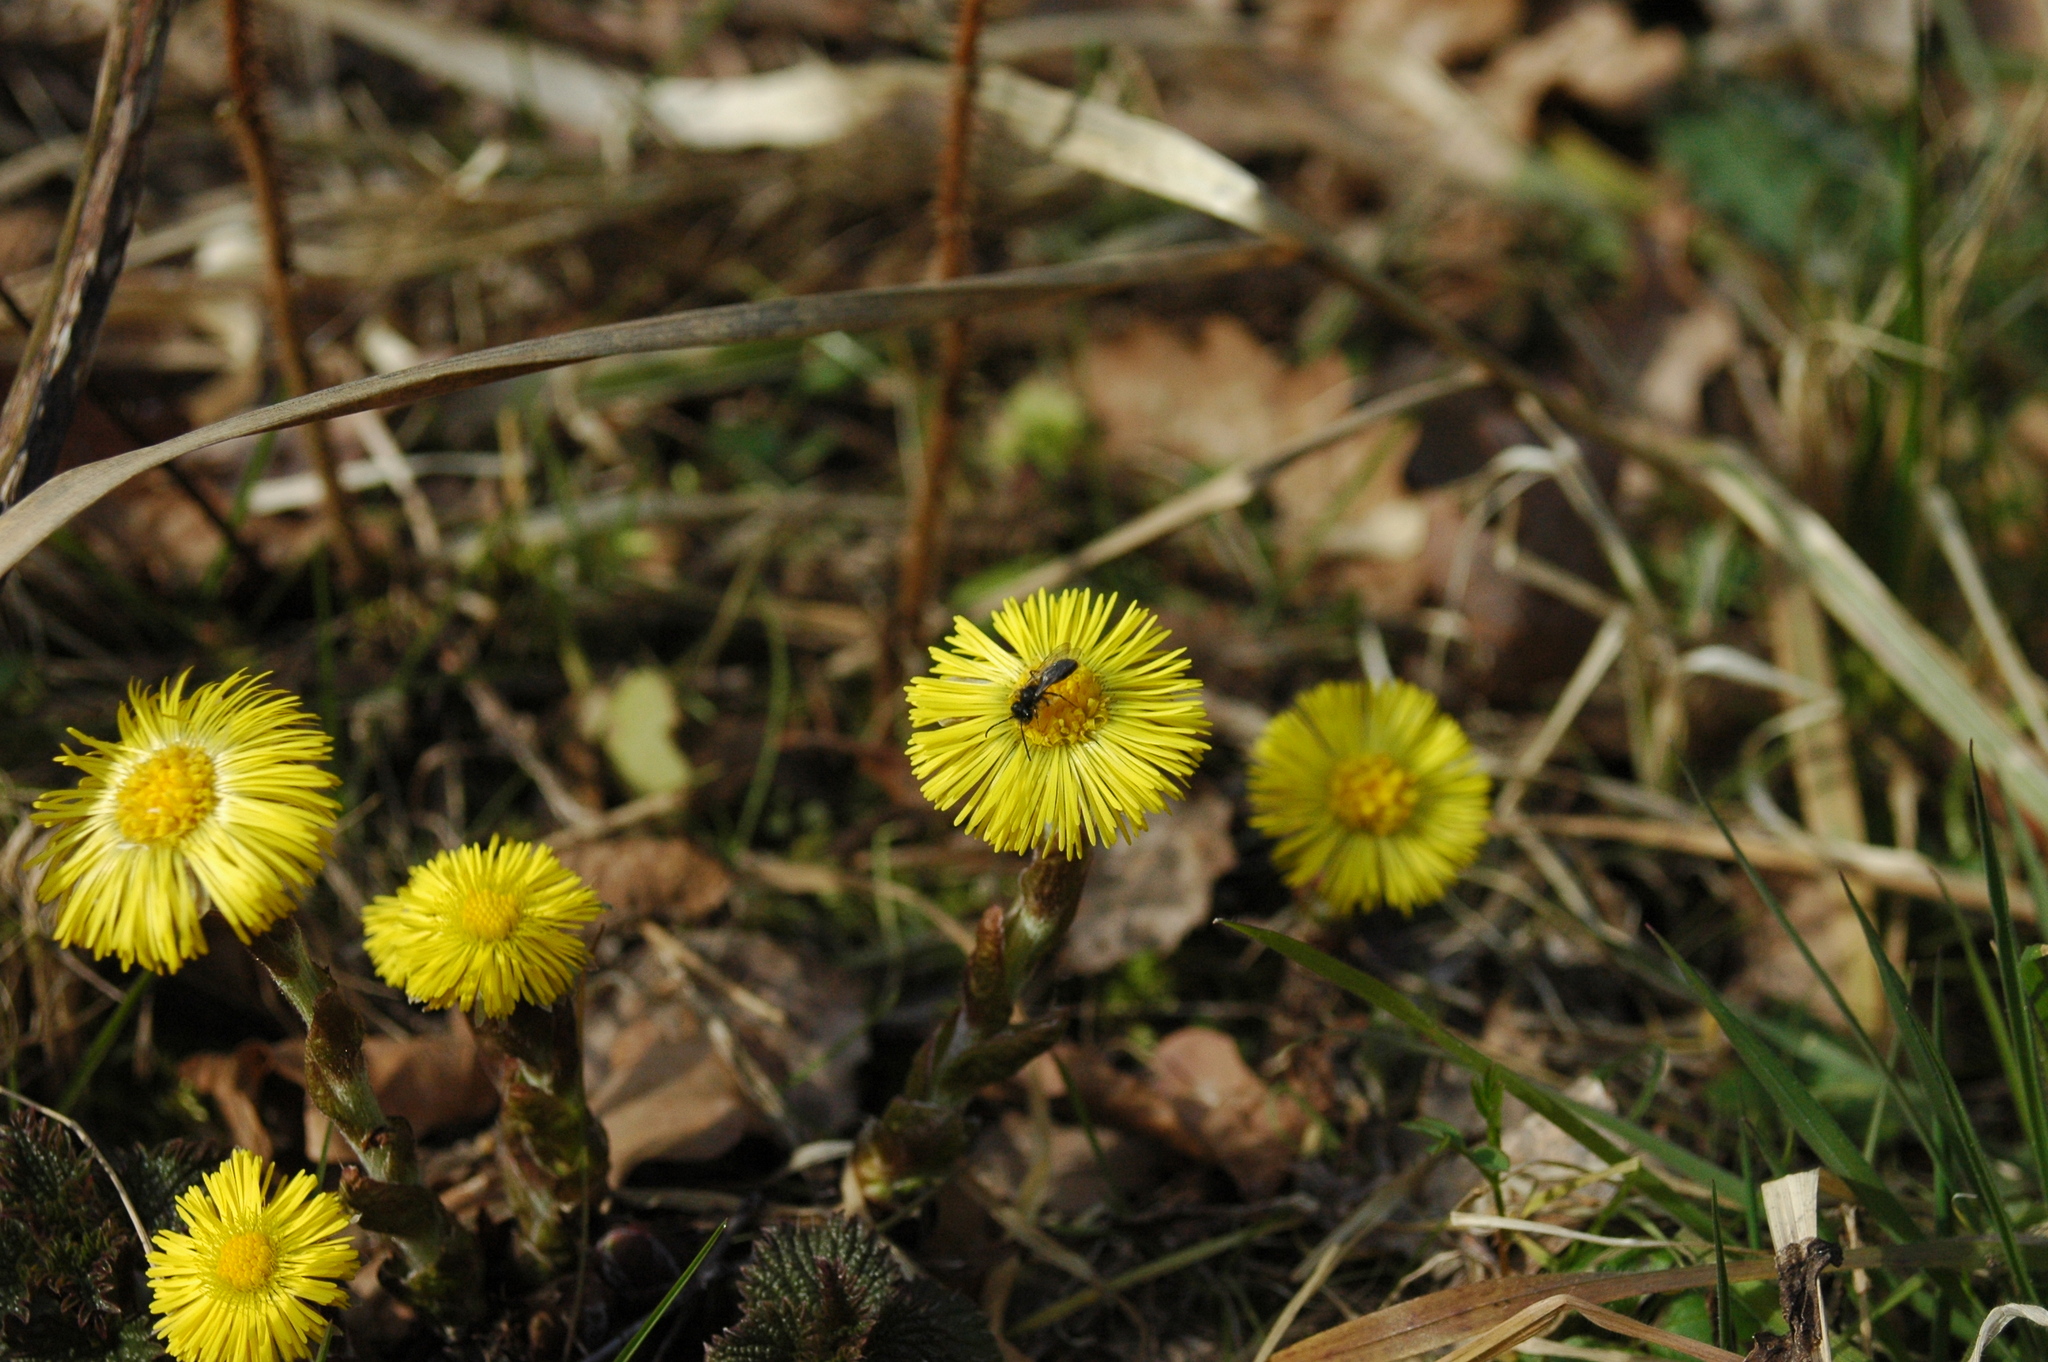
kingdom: Plantae
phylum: Tracheophyta
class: Magnoliopsida
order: Asterales
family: Asteraceae
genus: Tussilago
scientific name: Tussilago farfara
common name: Coltsfoot
